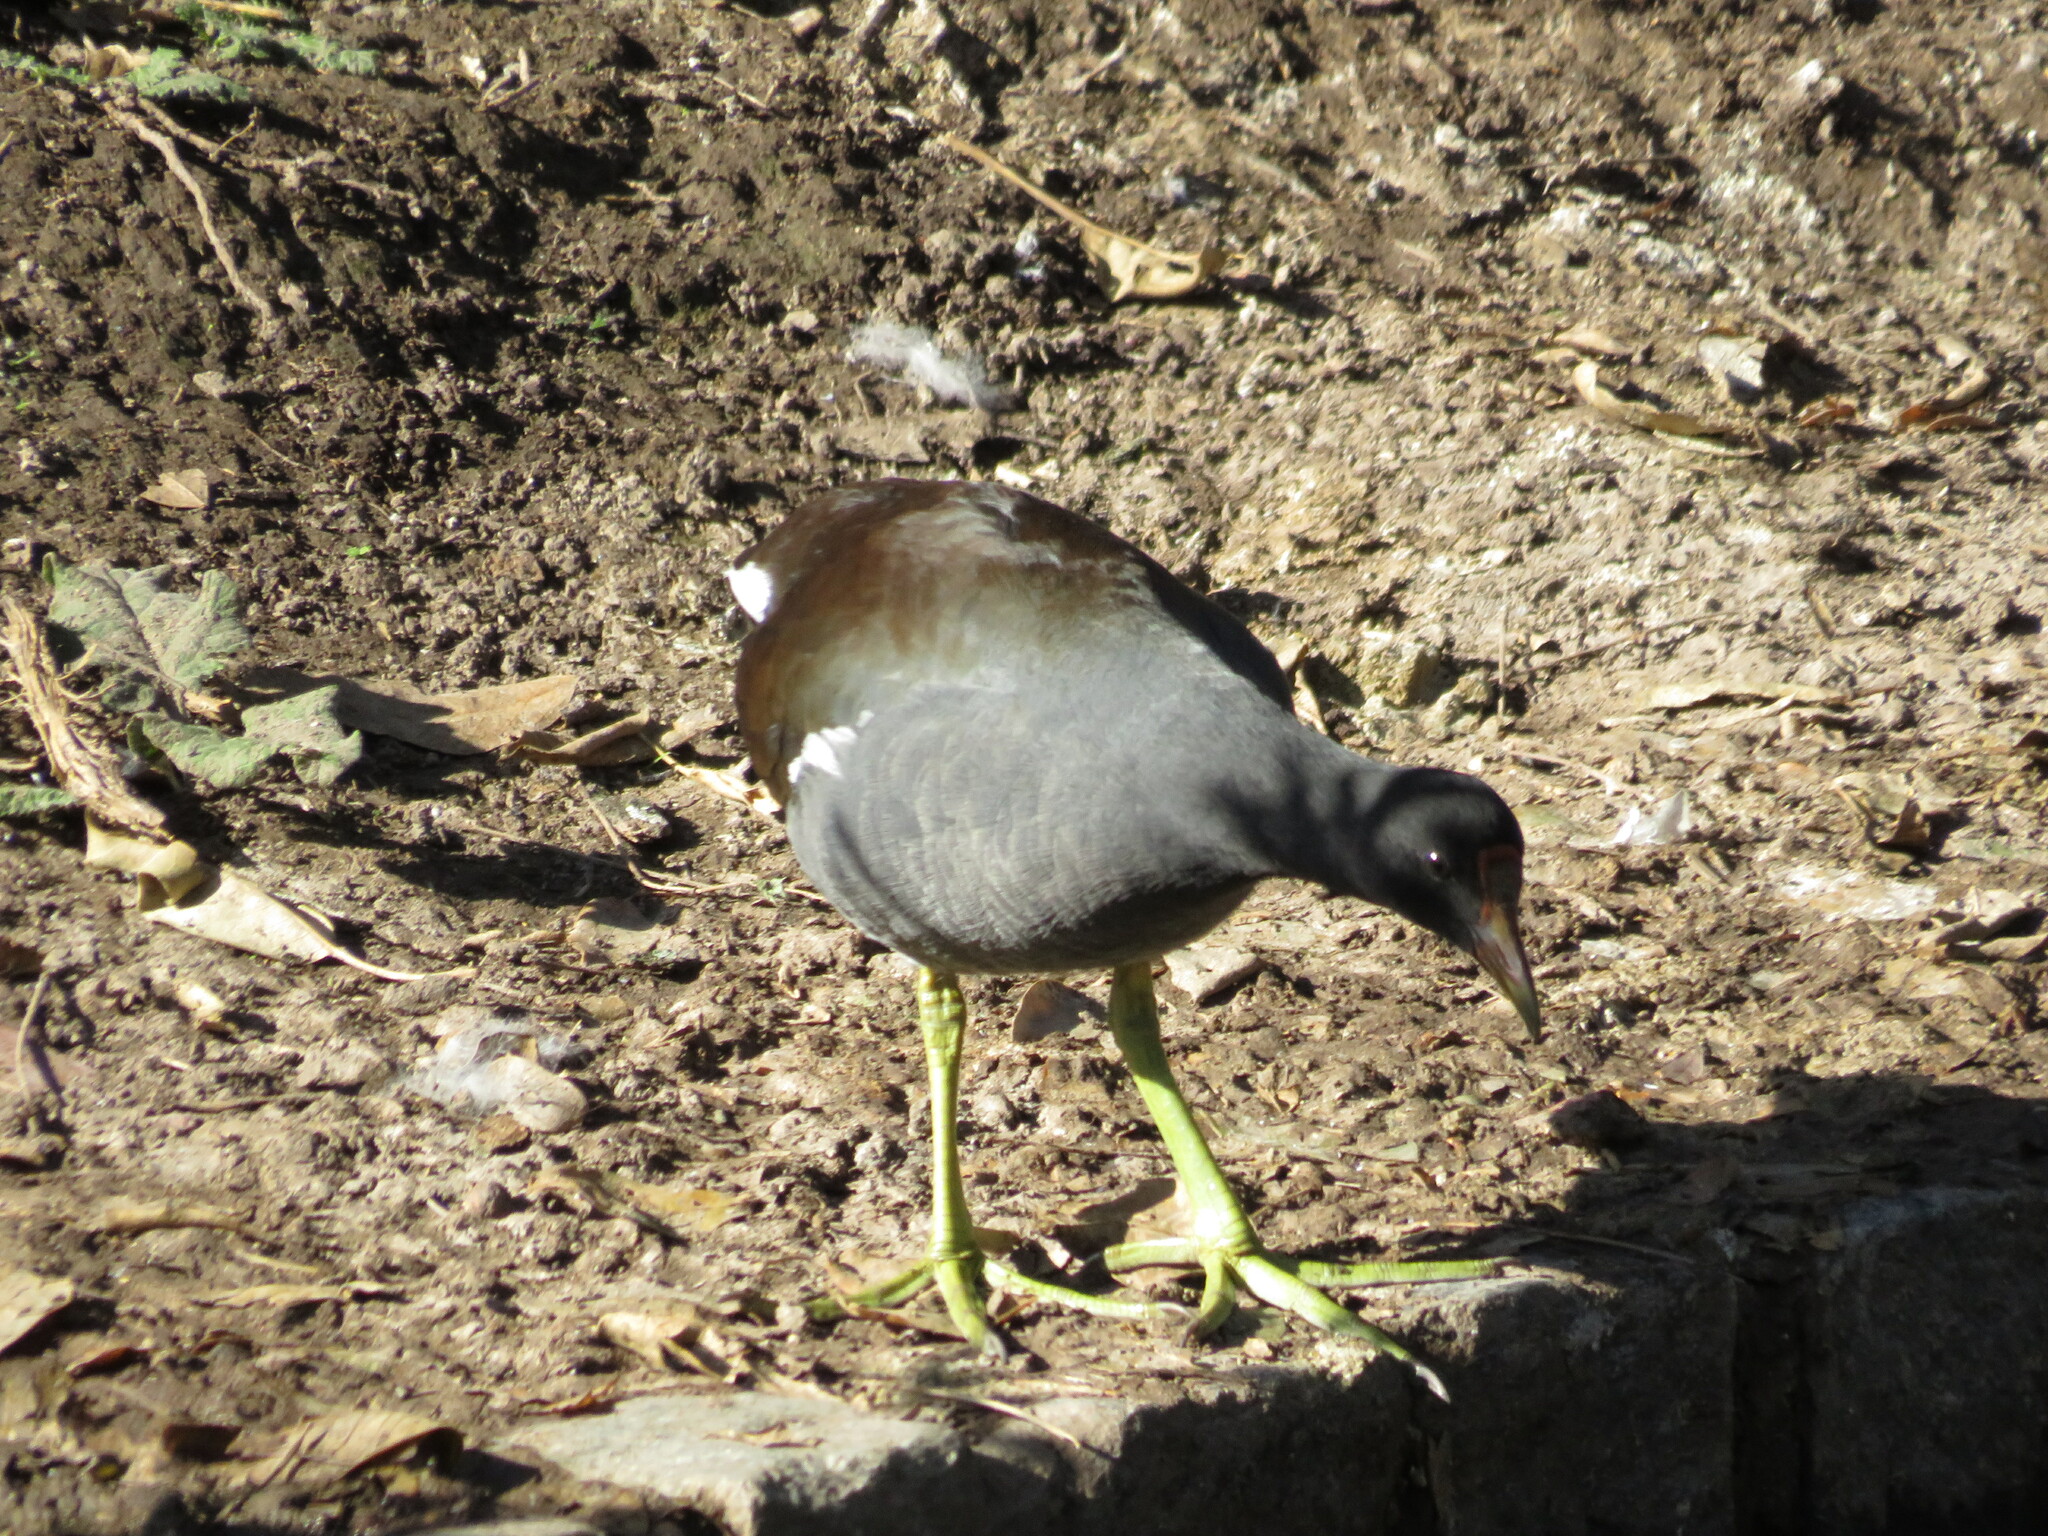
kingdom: Animalia
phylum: Chordata
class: Aves
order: Gruiformes
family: Rallidae
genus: Gallinula
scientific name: Gallinula chloropus
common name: Common moorhen
